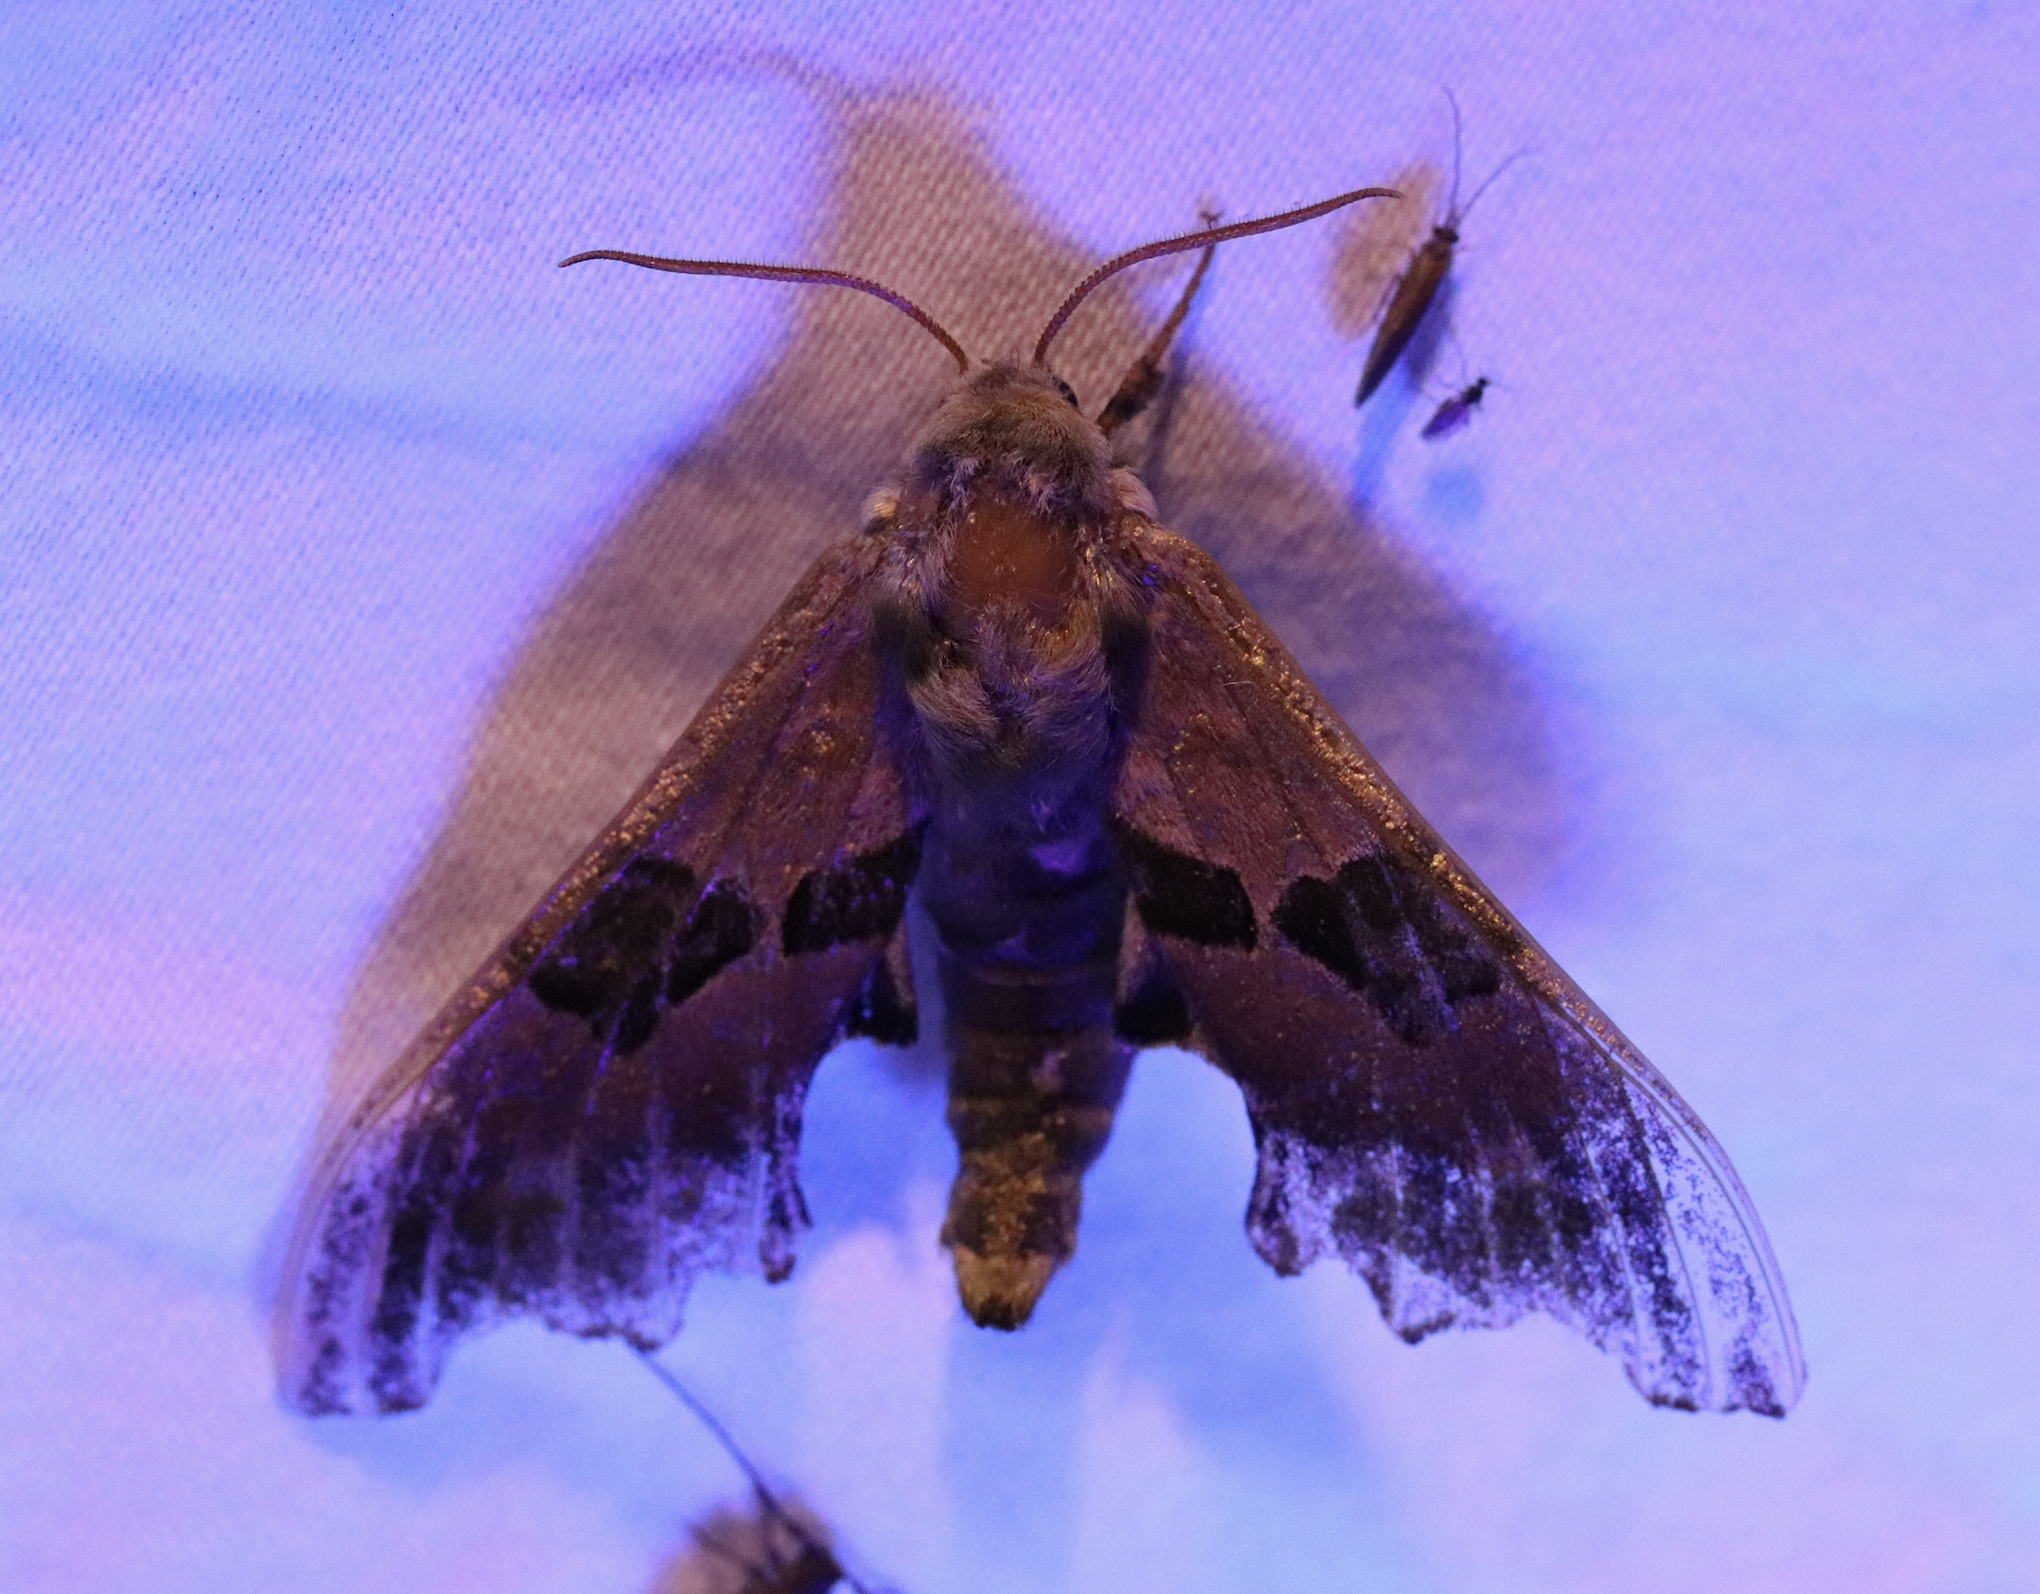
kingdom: Animalia
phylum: Arthropoda
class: Insecta
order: Lepidoptera
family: Sphingidae
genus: Mimas
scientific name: Mimas tiliae
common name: Lime hawk-moth
